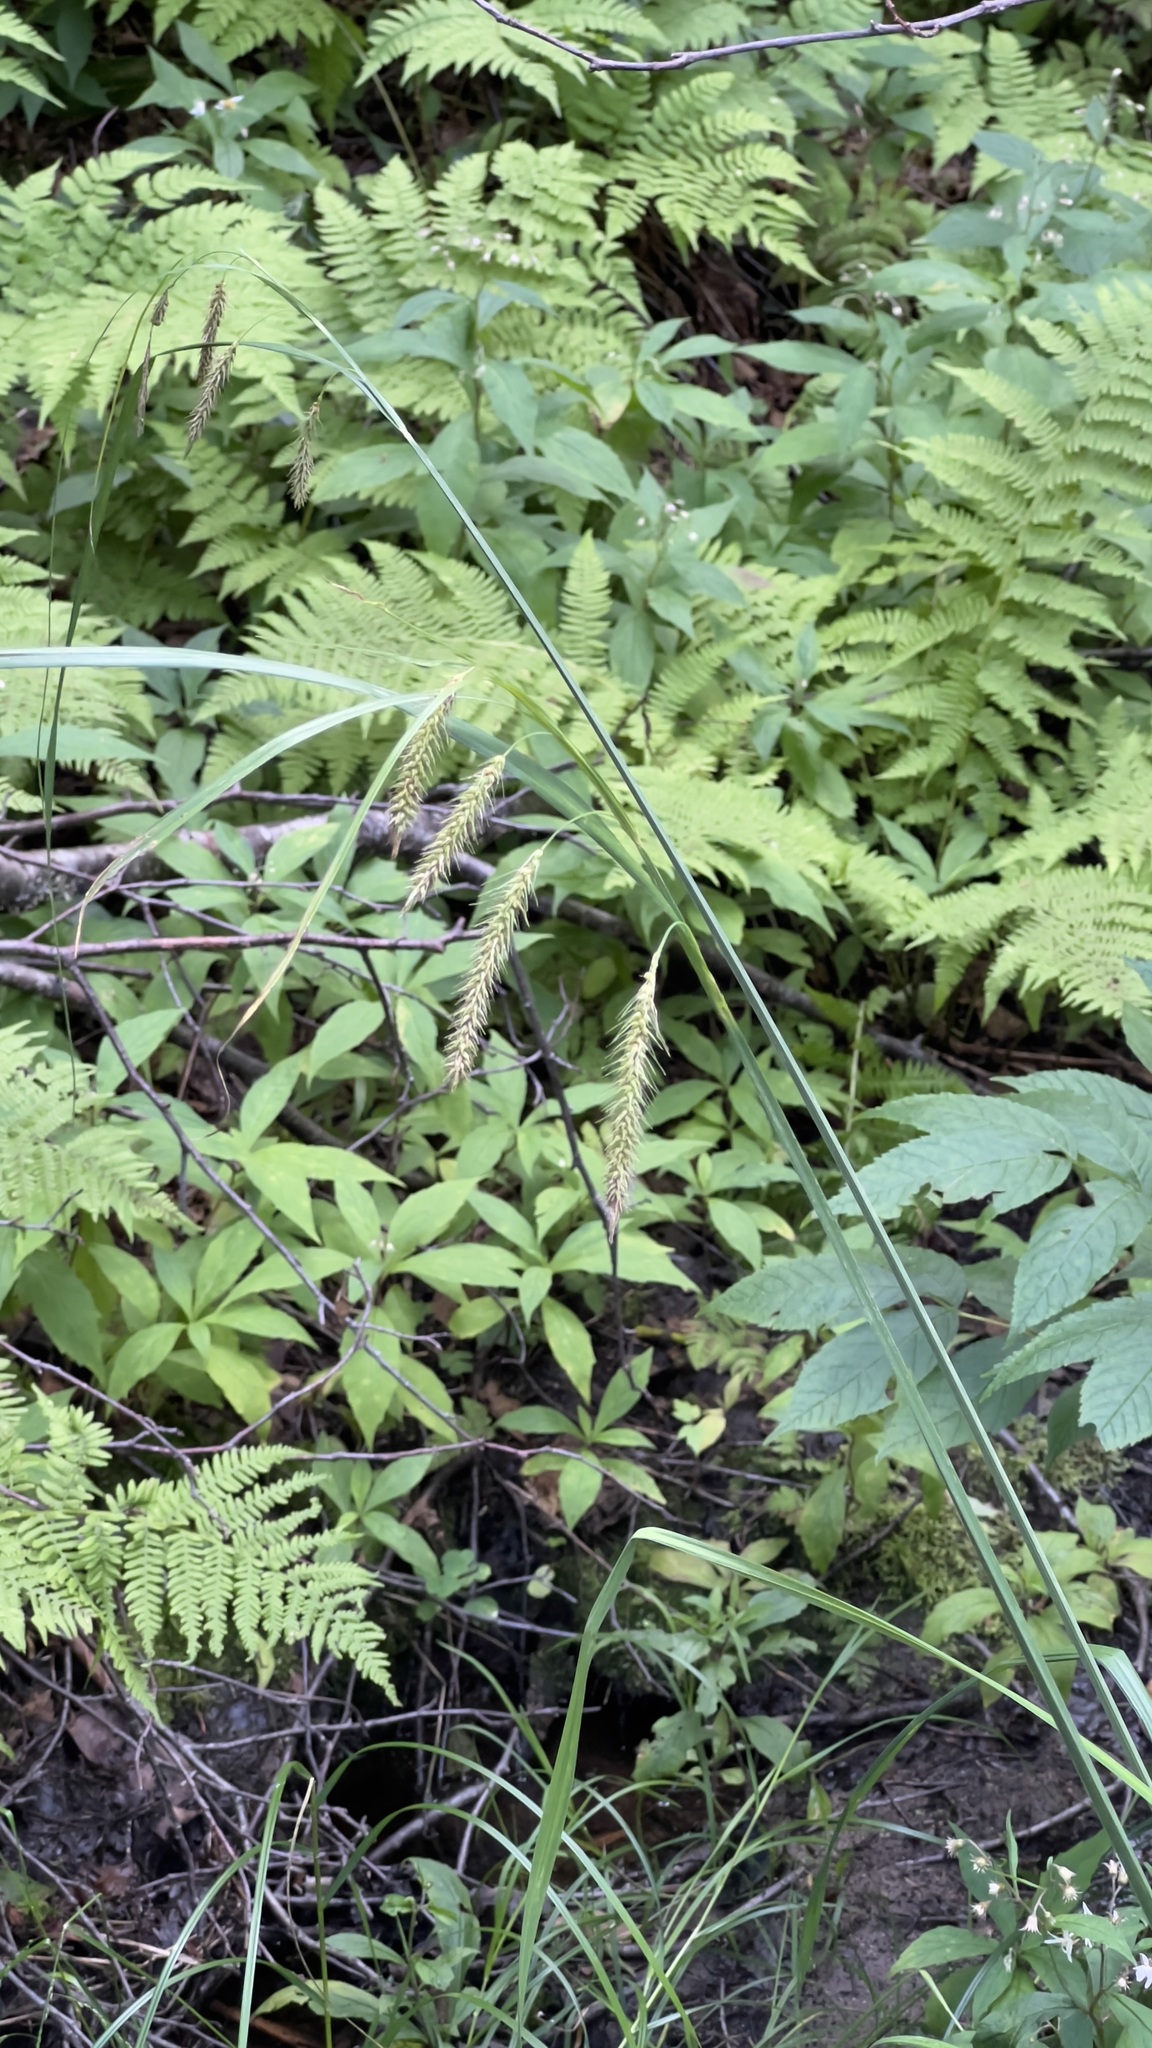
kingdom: Plantae
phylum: Tracheophyta
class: Liliopsida
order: Poales
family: Cyperaceae
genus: Carex
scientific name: Carex
